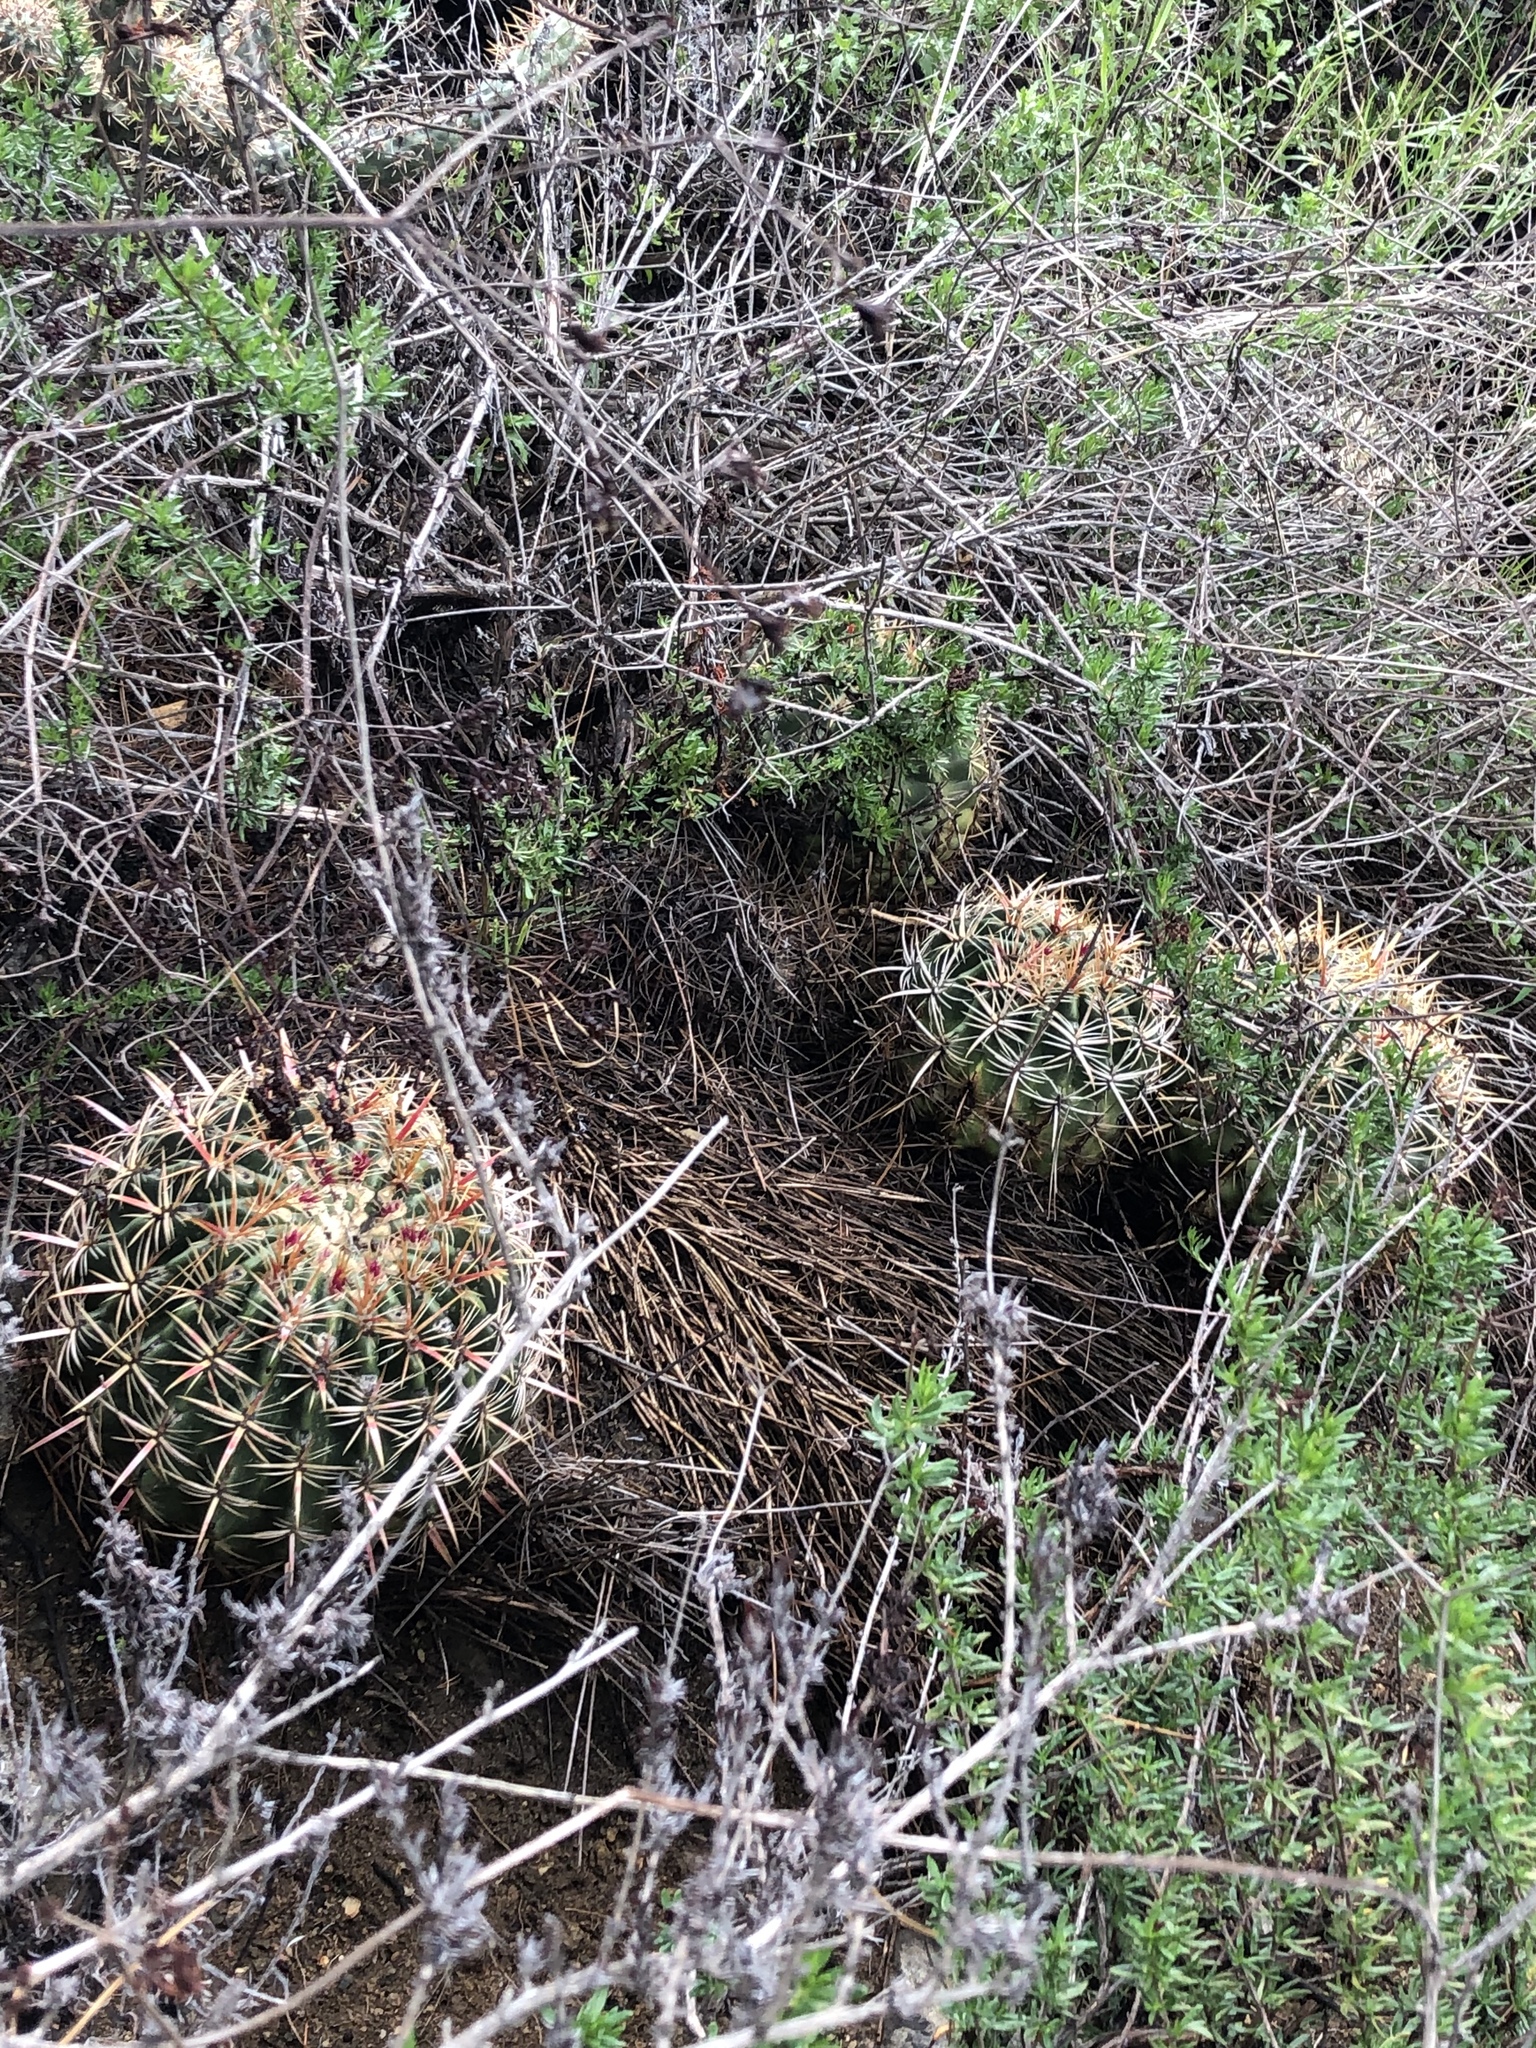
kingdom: Plantae
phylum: Tracheophyta
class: Magnoliopsida
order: Caryophyllales
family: Cactaceae
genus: Ferocactus
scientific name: Ferocactus viridescens
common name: San diego barrel cactus
